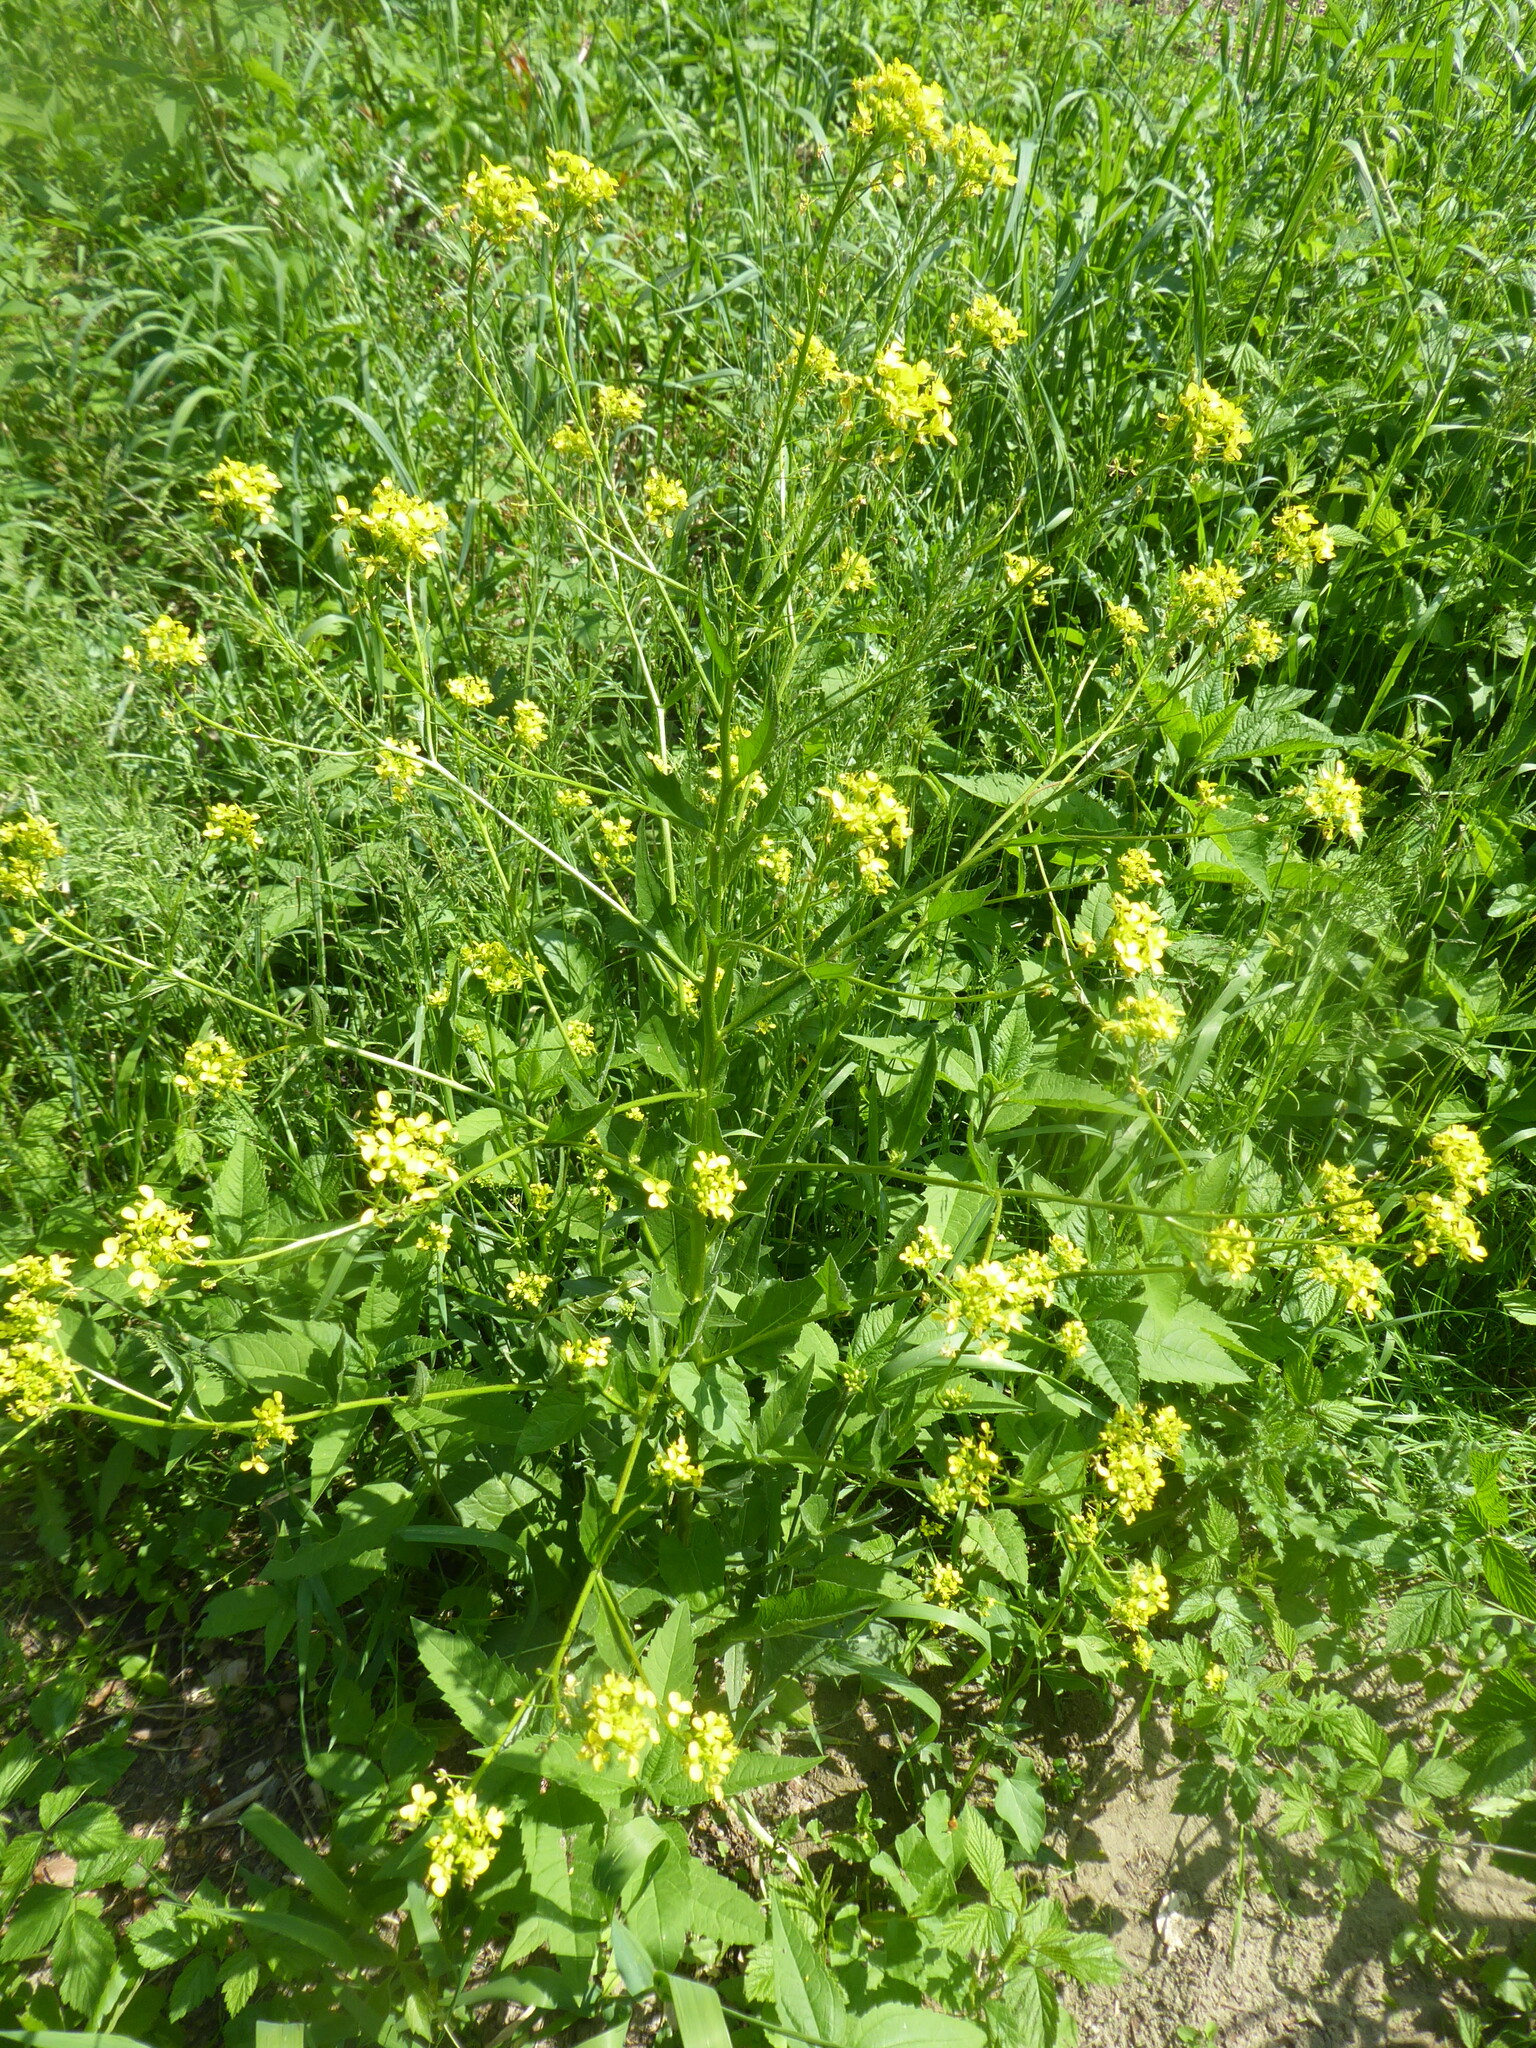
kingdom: Plantae
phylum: Tracheophyta
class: Magnoliopsida
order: Brassicales
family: Brassicaceae
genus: Bunias
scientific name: Bunias orientalis
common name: Warty-cabbage
